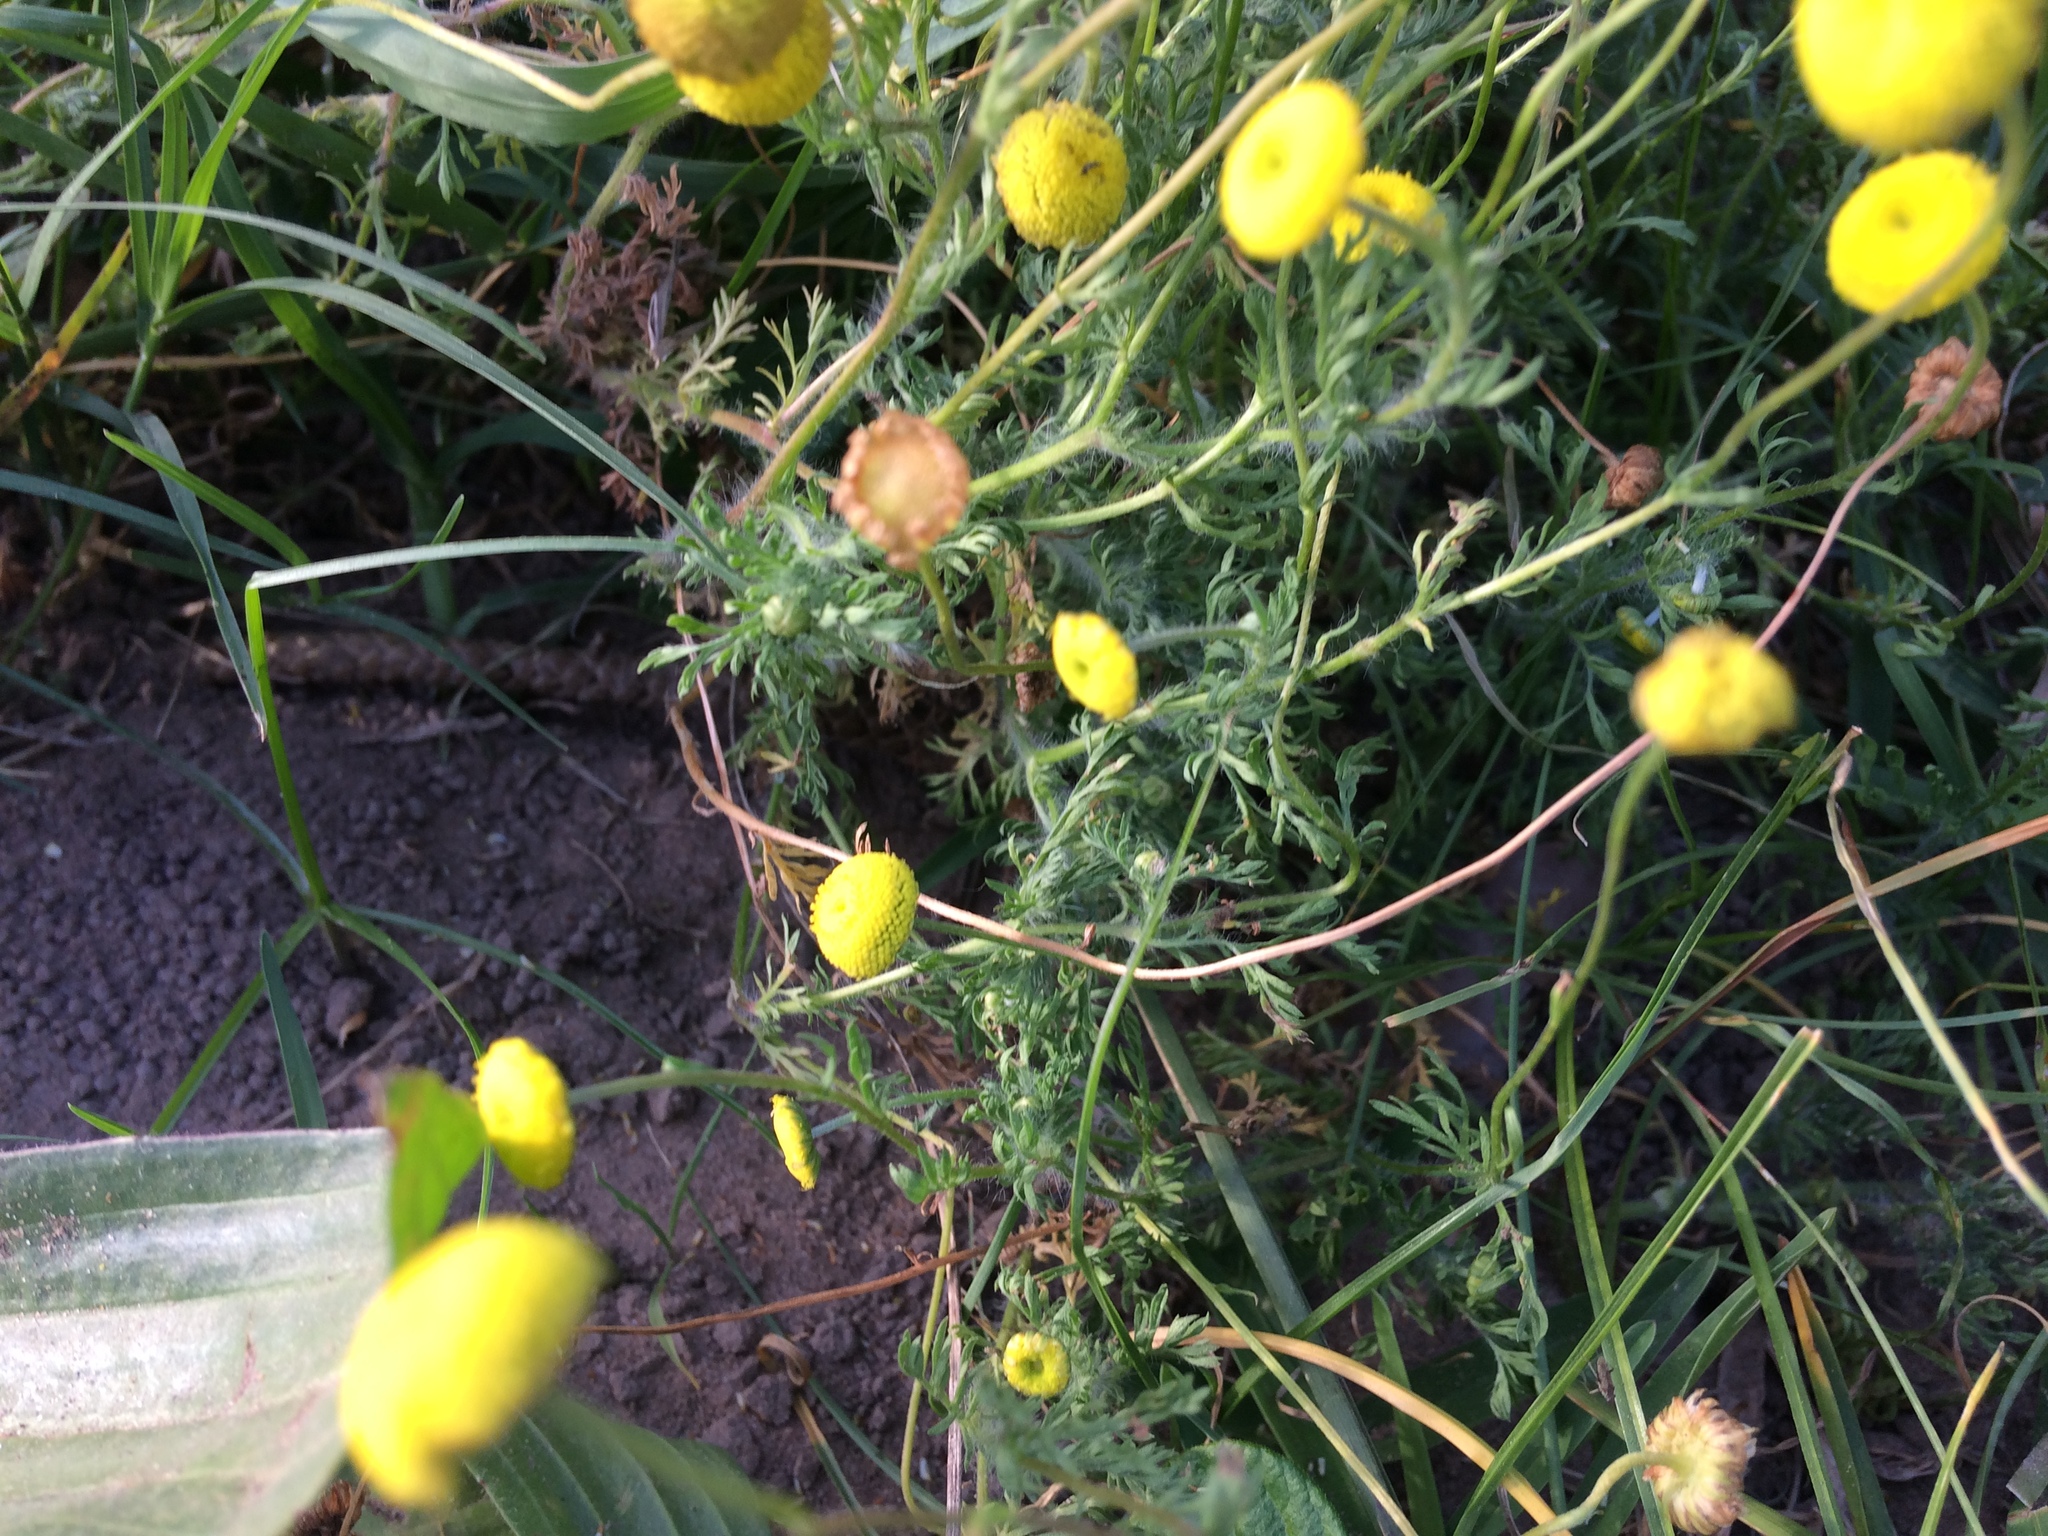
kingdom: Plantae
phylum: Tracheophyta
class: Magnoliopsida
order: Asterales
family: Asteraceae
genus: Oncosiphon
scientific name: Oncosiphon pilulifer
